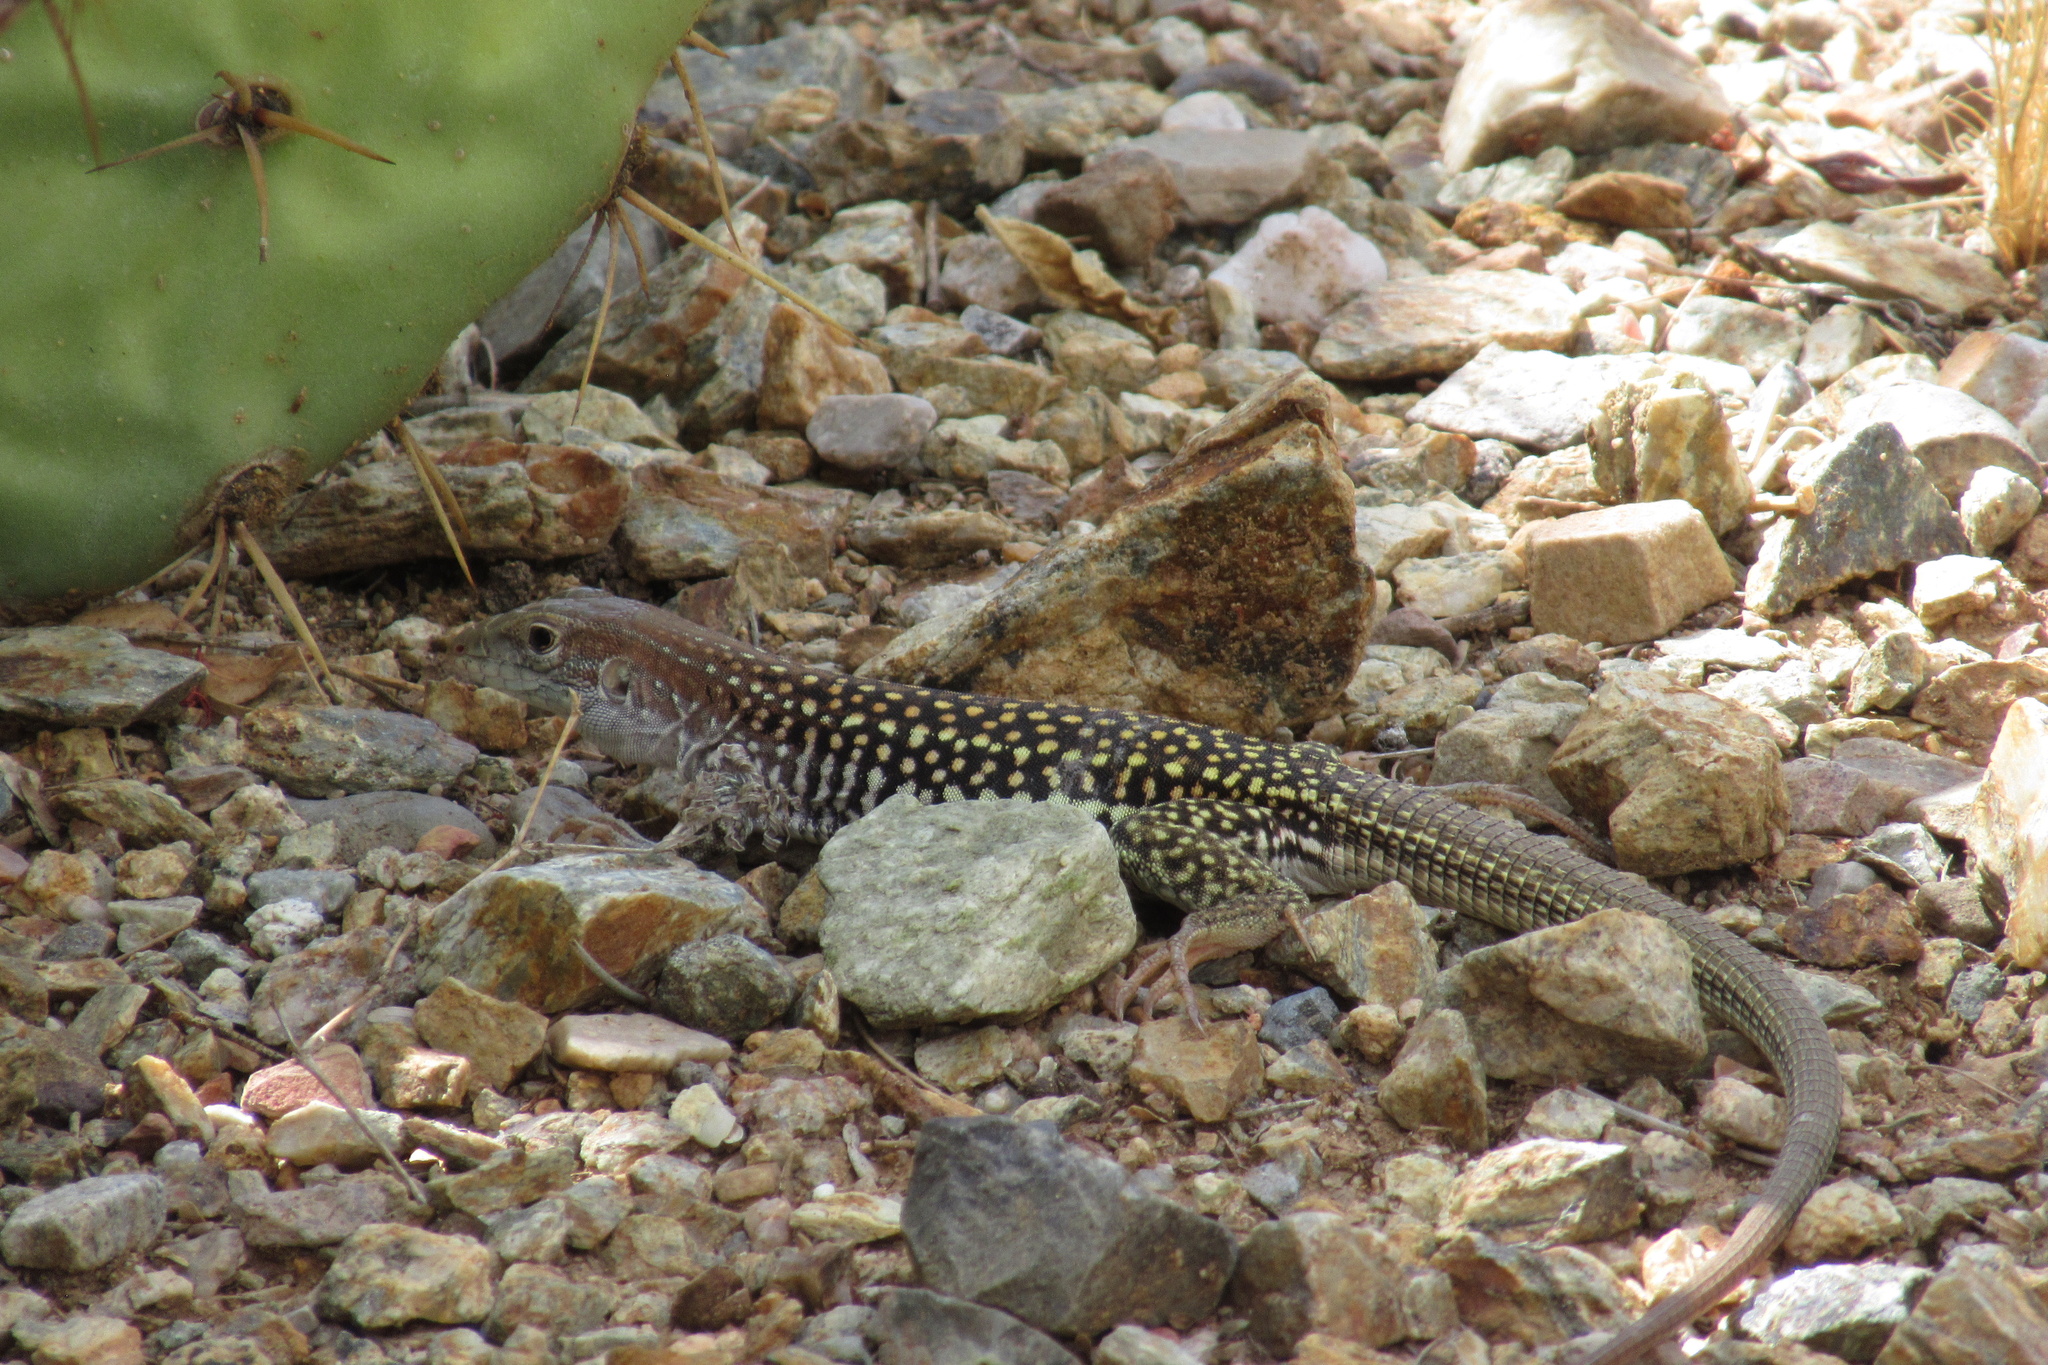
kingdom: Animalia
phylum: Chordata
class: Squamata
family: Teiidae
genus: Aspidoscelis
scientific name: Aspidoscelis stictogrammus
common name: Giant spotted whiptail
